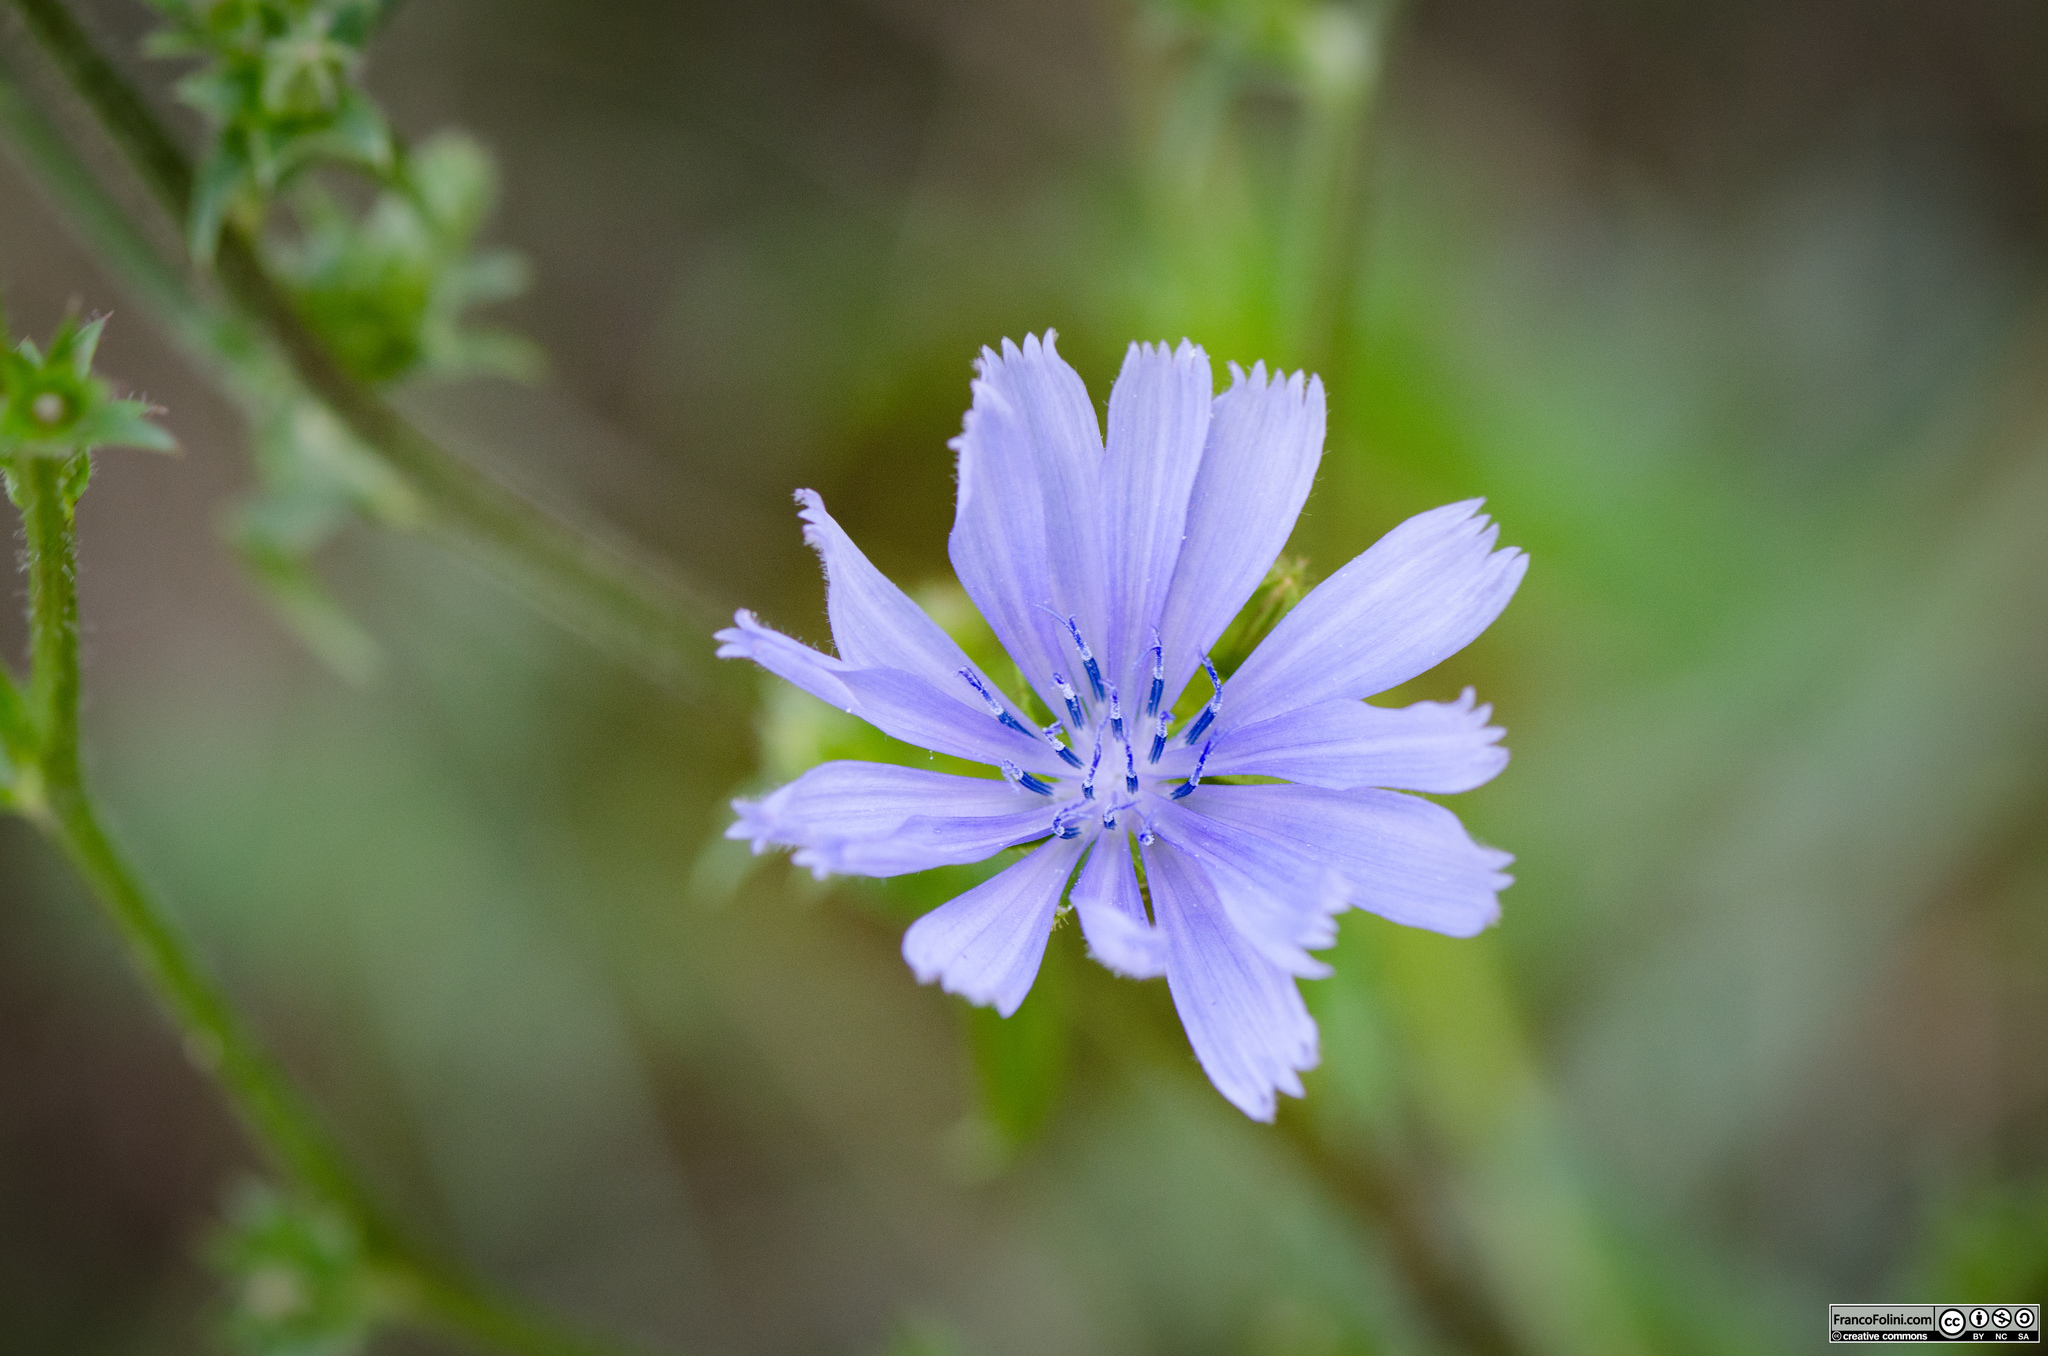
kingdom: Plantae
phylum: Tracheophyta
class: Magnoliopsida
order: Asterales
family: Asteraceae
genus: Cichorium
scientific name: Cichorium intybus
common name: Chicory
